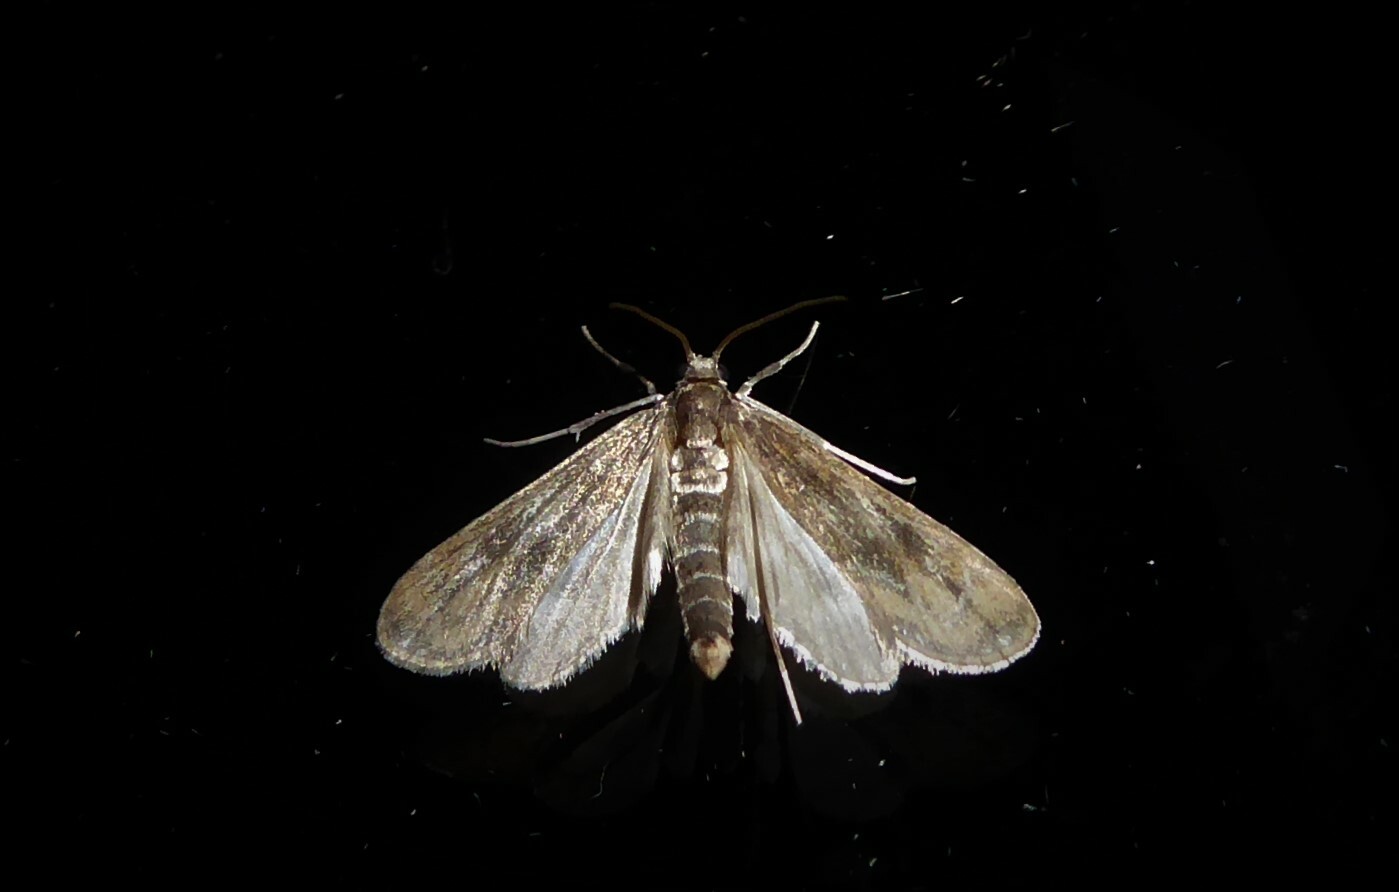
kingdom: Animalia
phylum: Arthropoda
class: Insecta
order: Lepidoptera
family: Crambidae
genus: Hygraula
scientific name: Hygraula nitens
